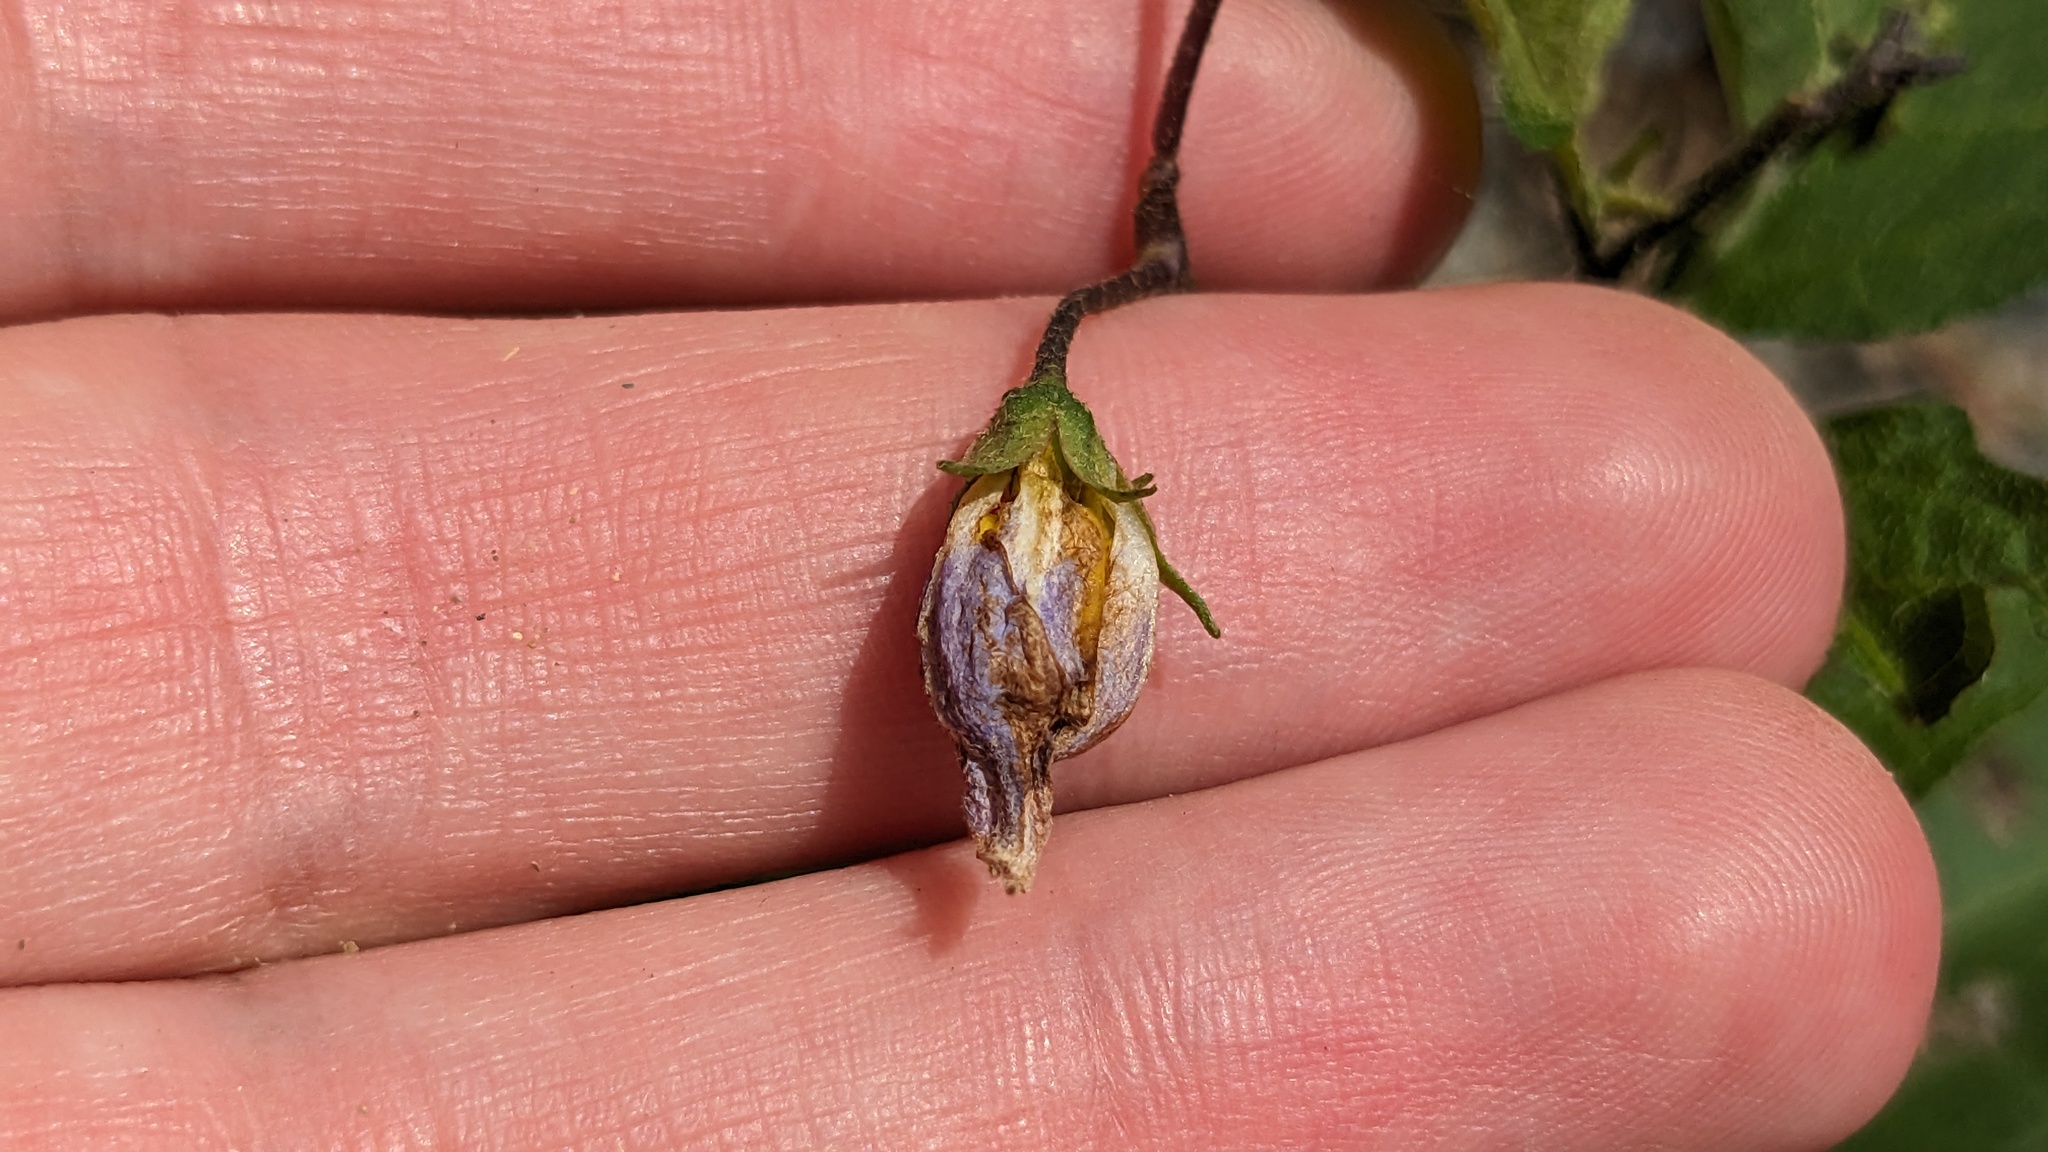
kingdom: Plantae
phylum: Tracheophyta
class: Magnoliopsida
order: Solanales
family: Solanaceae
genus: Solanum
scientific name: Solanum carolinense
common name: Horse-nettle
